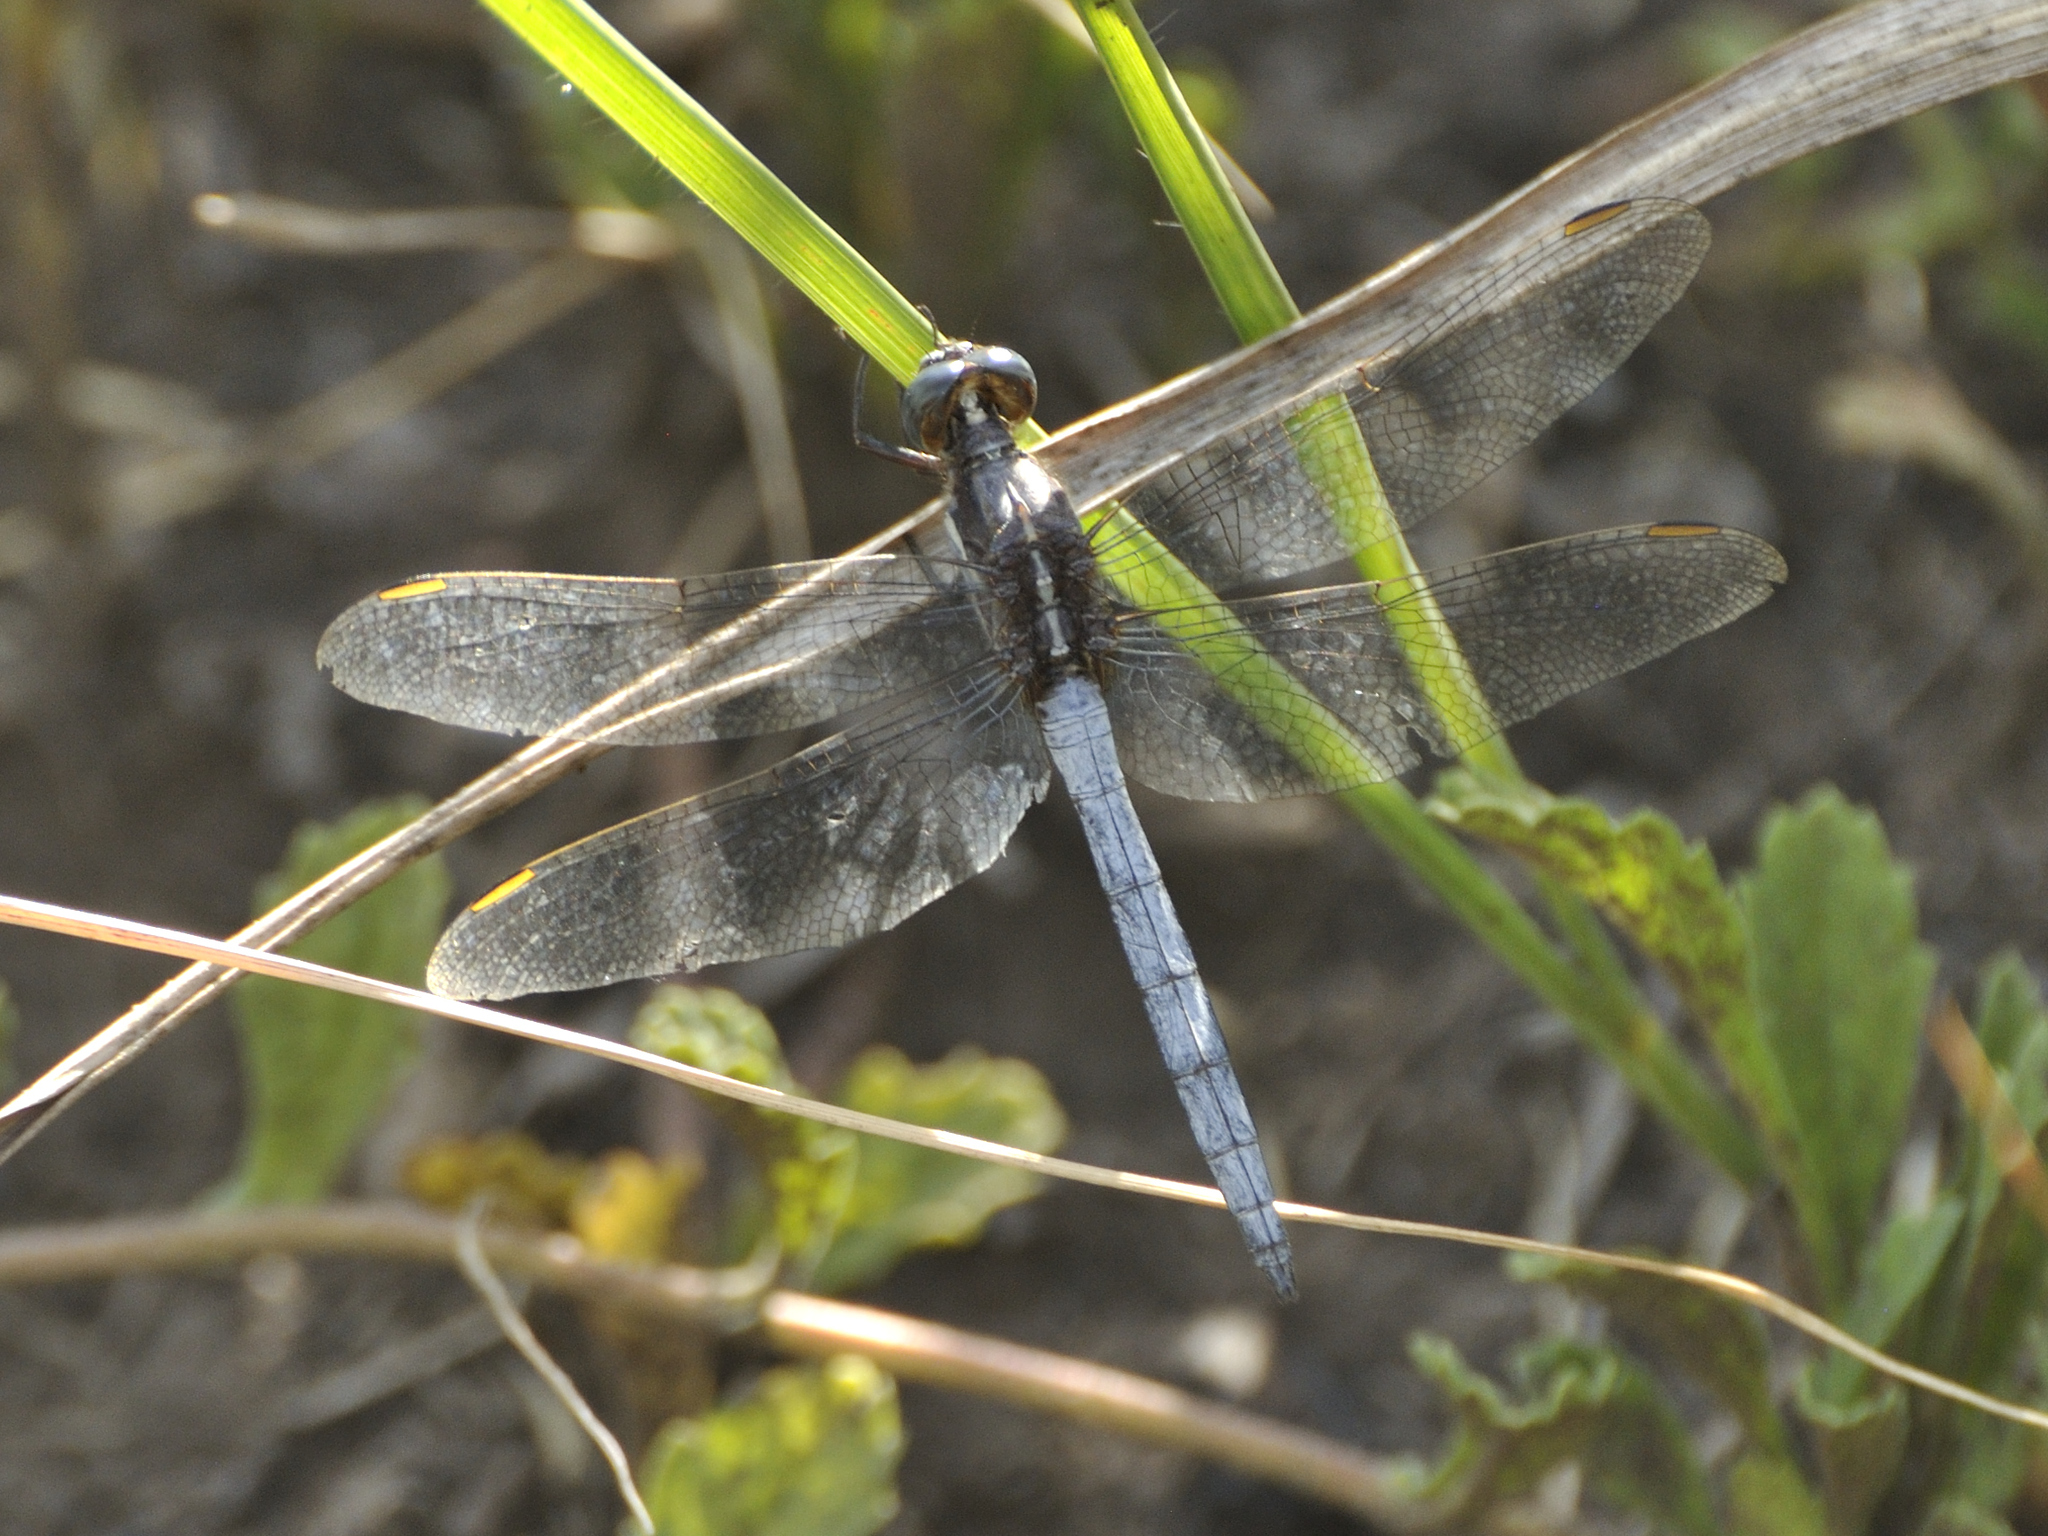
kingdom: Animalia
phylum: Arthropoda
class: Insecta
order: Odonata
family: Libellulidae
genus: Orthetrum
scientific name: Orthetrum caffrum
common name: Two-striped skimmer
